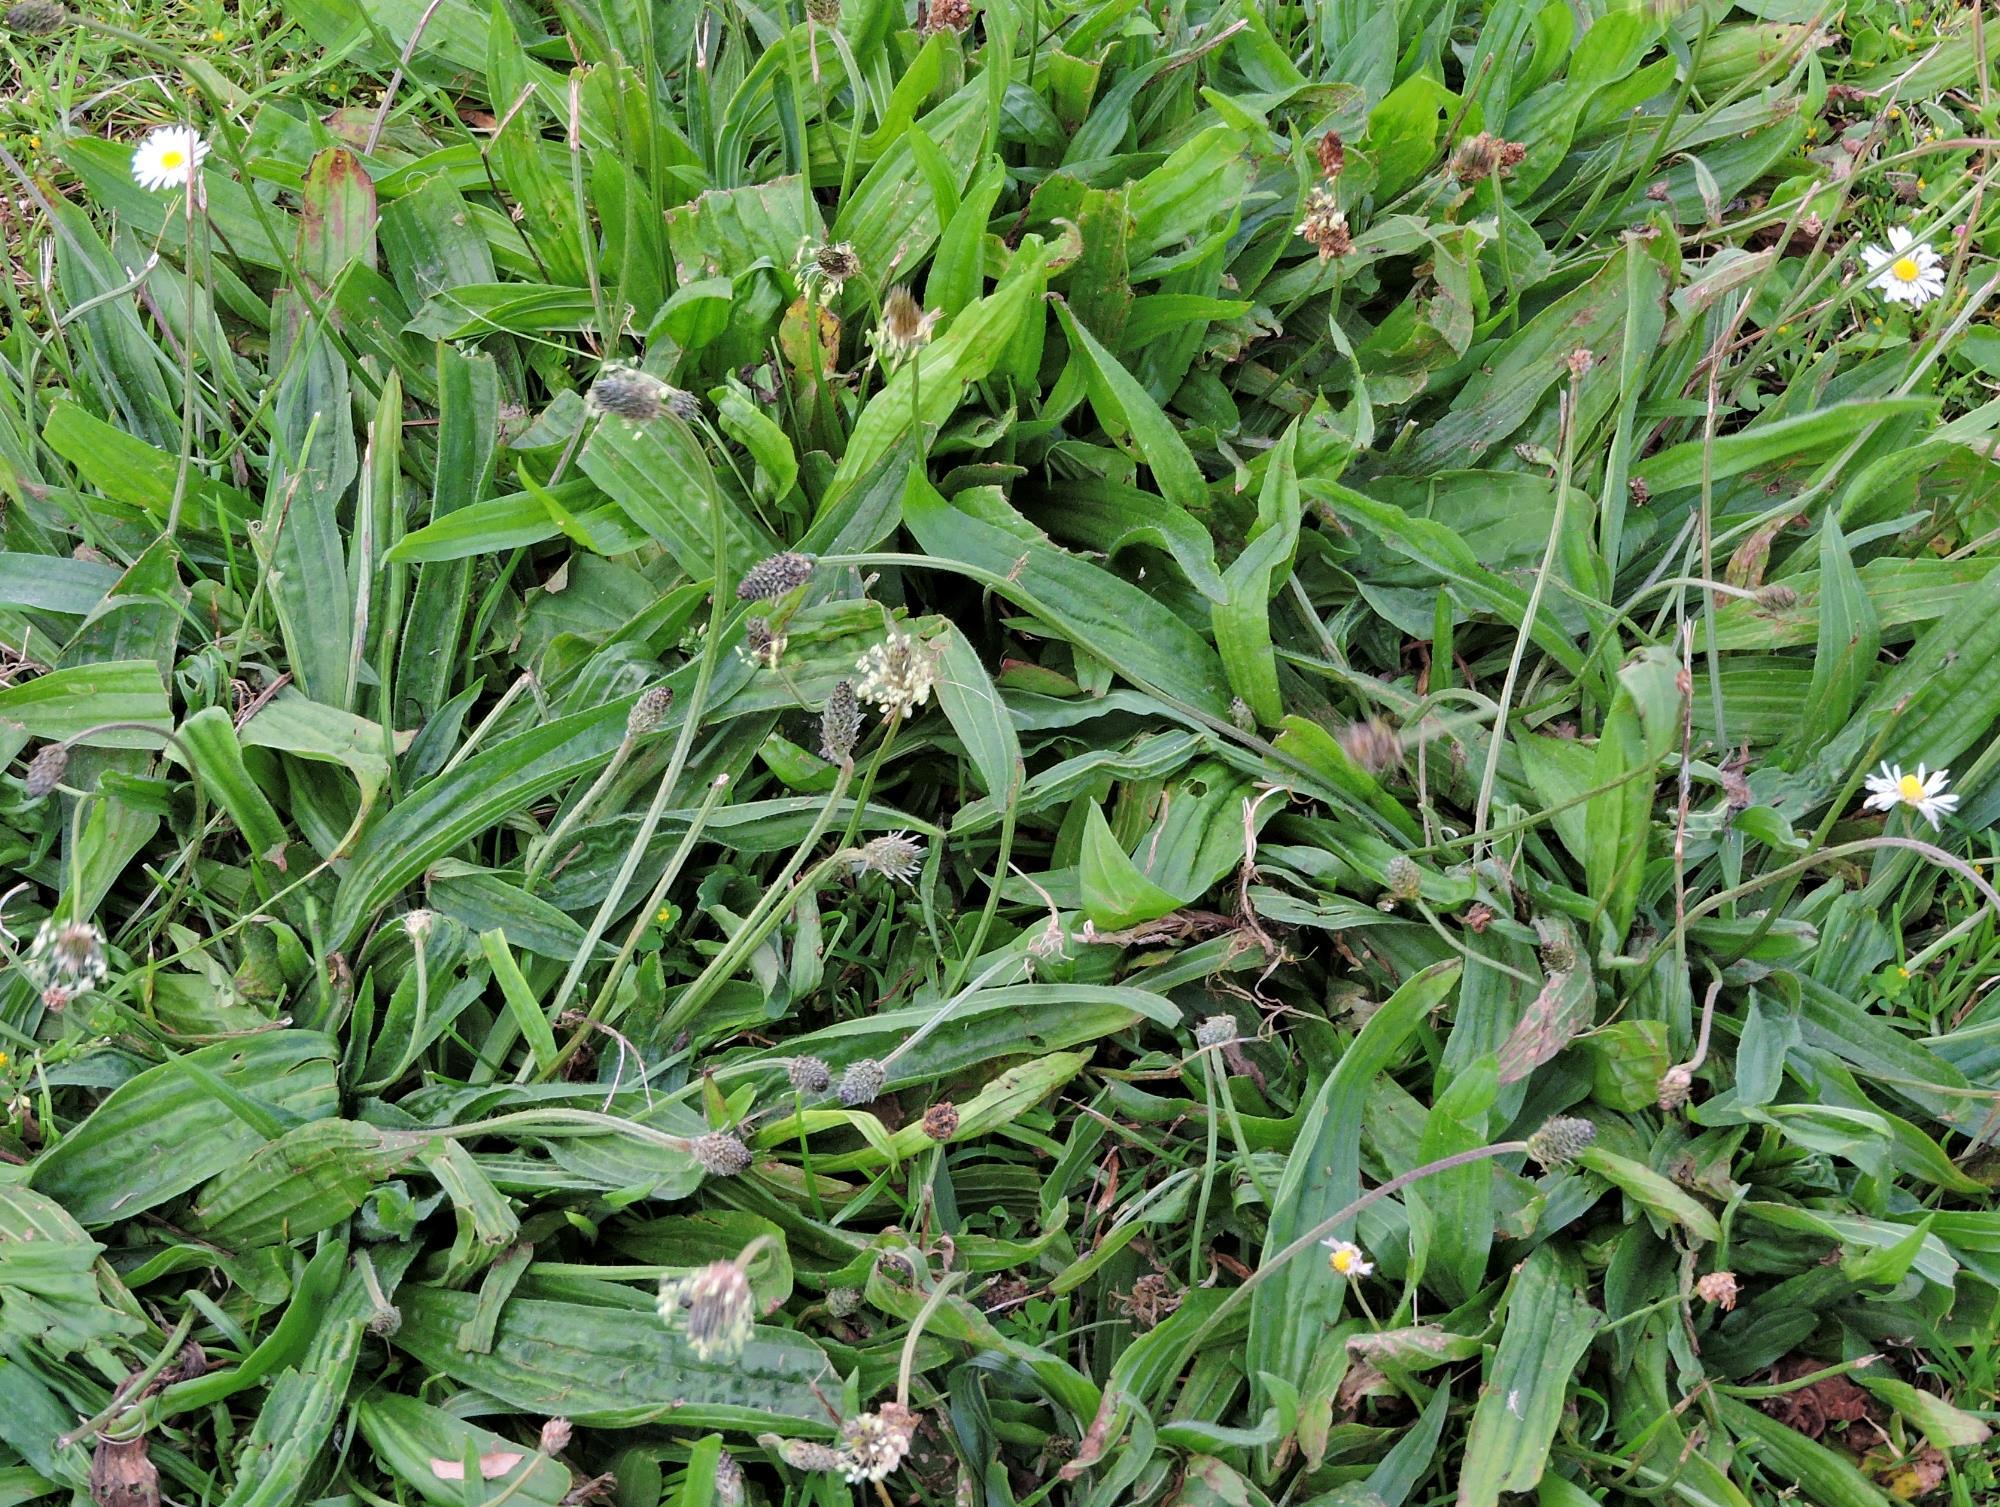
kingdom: Plantae
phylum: Tracheophyta
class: Magnoliopsida
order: Lamiales
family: Plantaginaceae
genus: Plantago
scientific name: Plantago lanceolata
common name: Ribwort plantain
